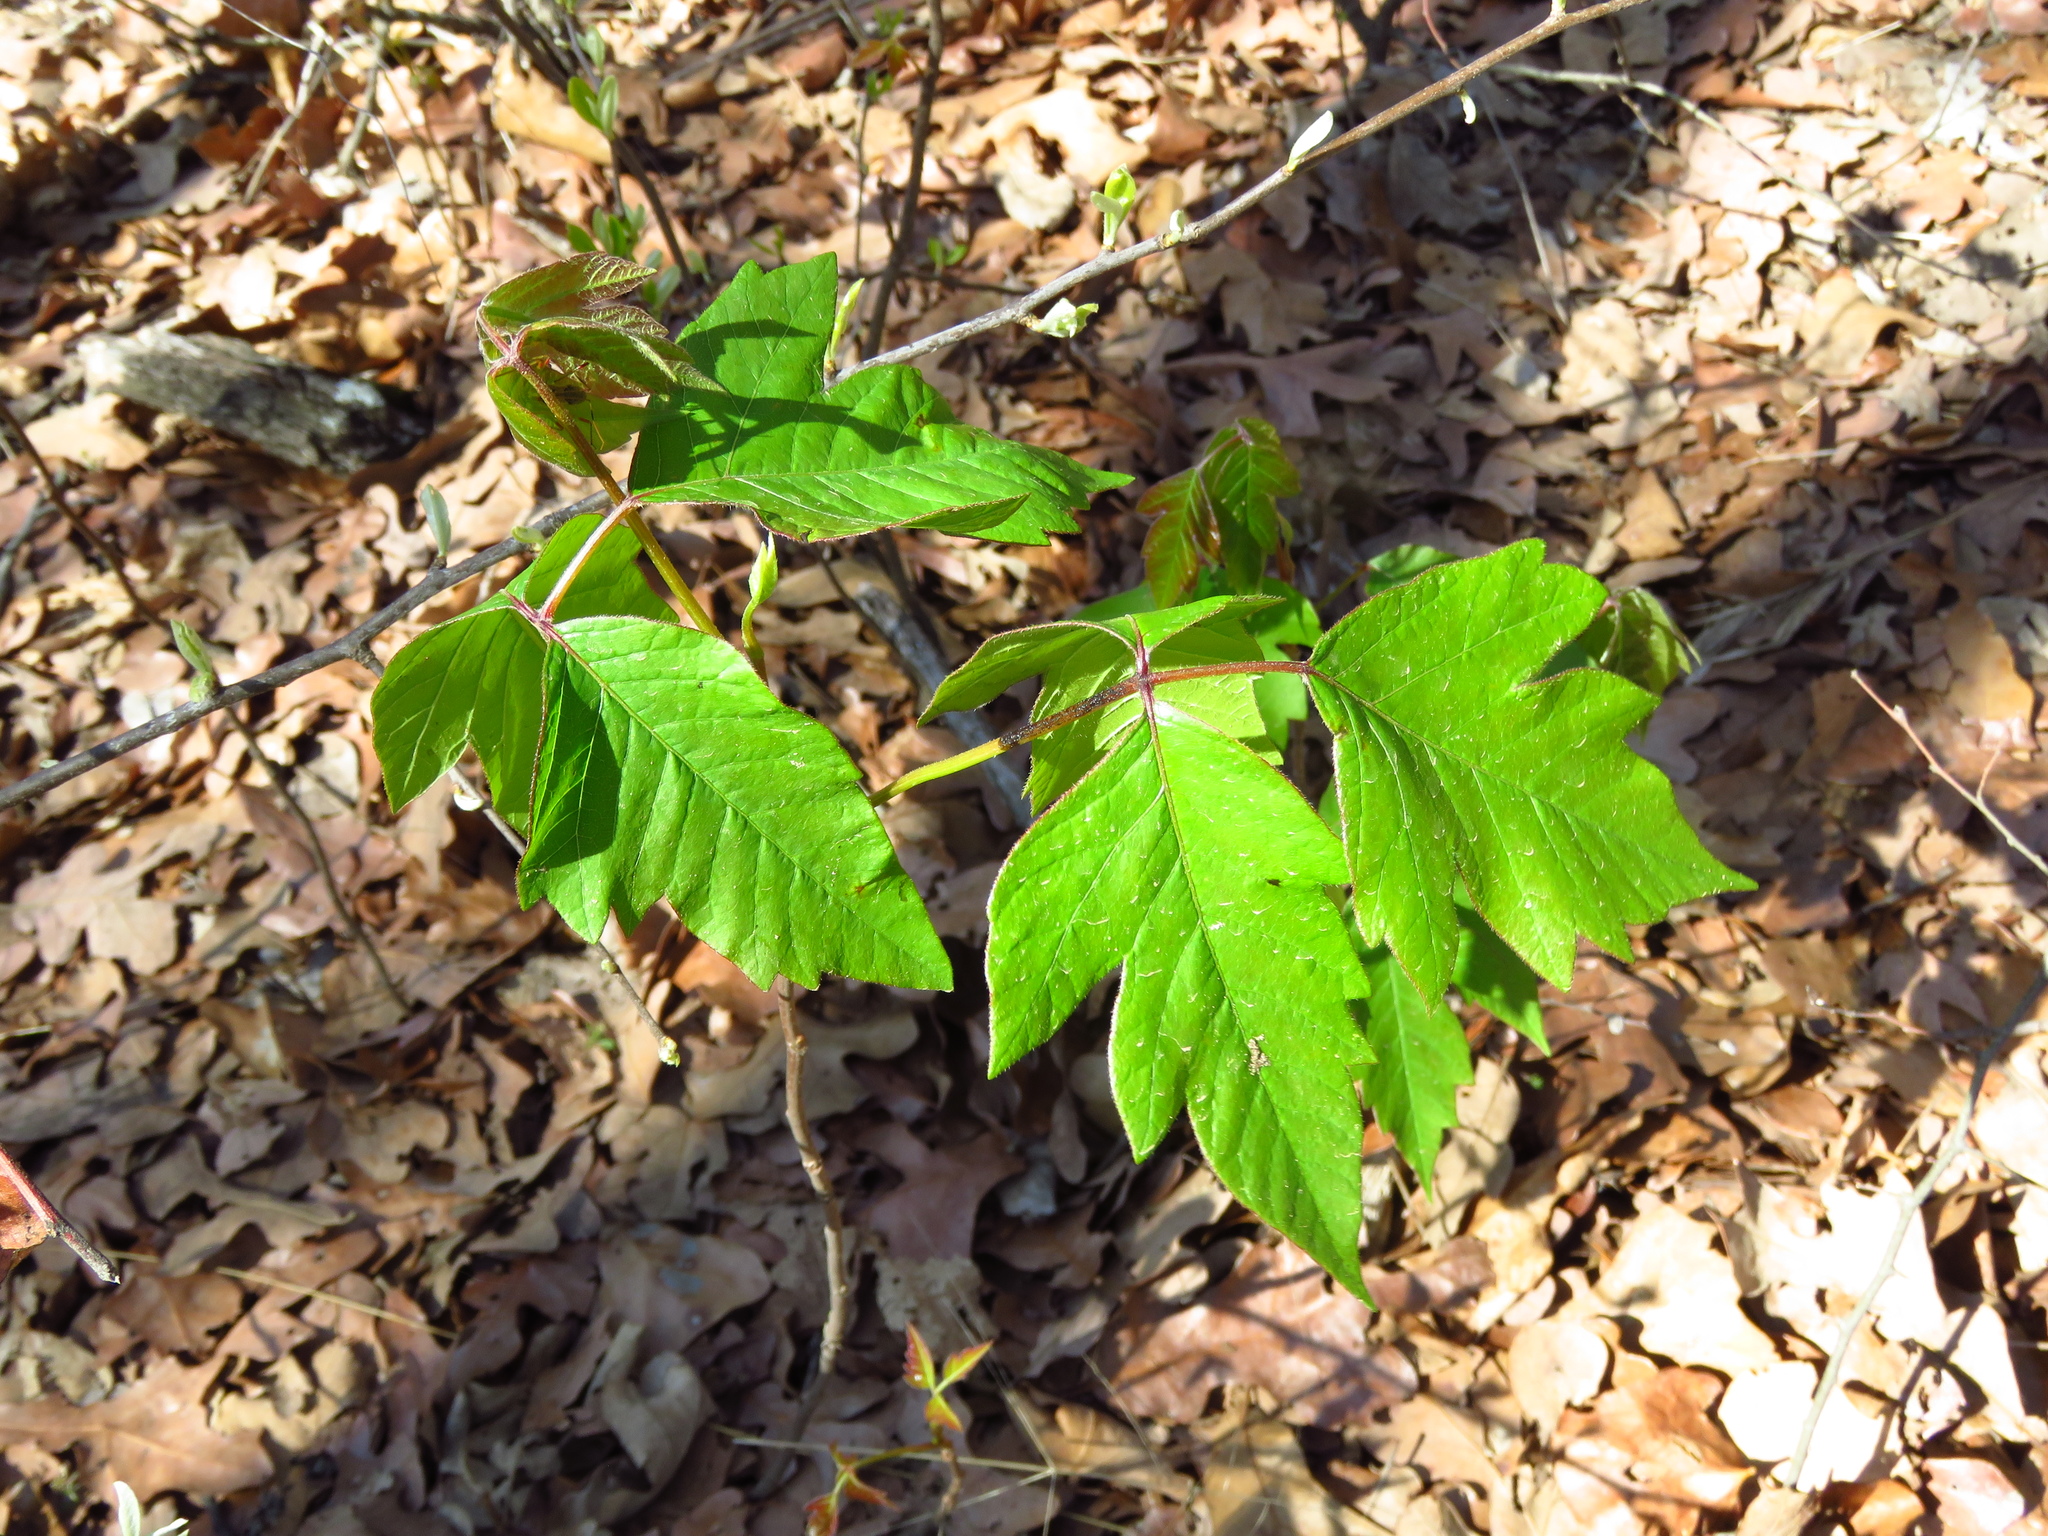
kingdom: Plantae
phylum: Tracheophyta
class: Magnoliopsida
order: Sapindales
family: Anacardiaceae
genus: Toxicodendron
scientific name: Toxicodendron radicans
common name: Poison ivy
